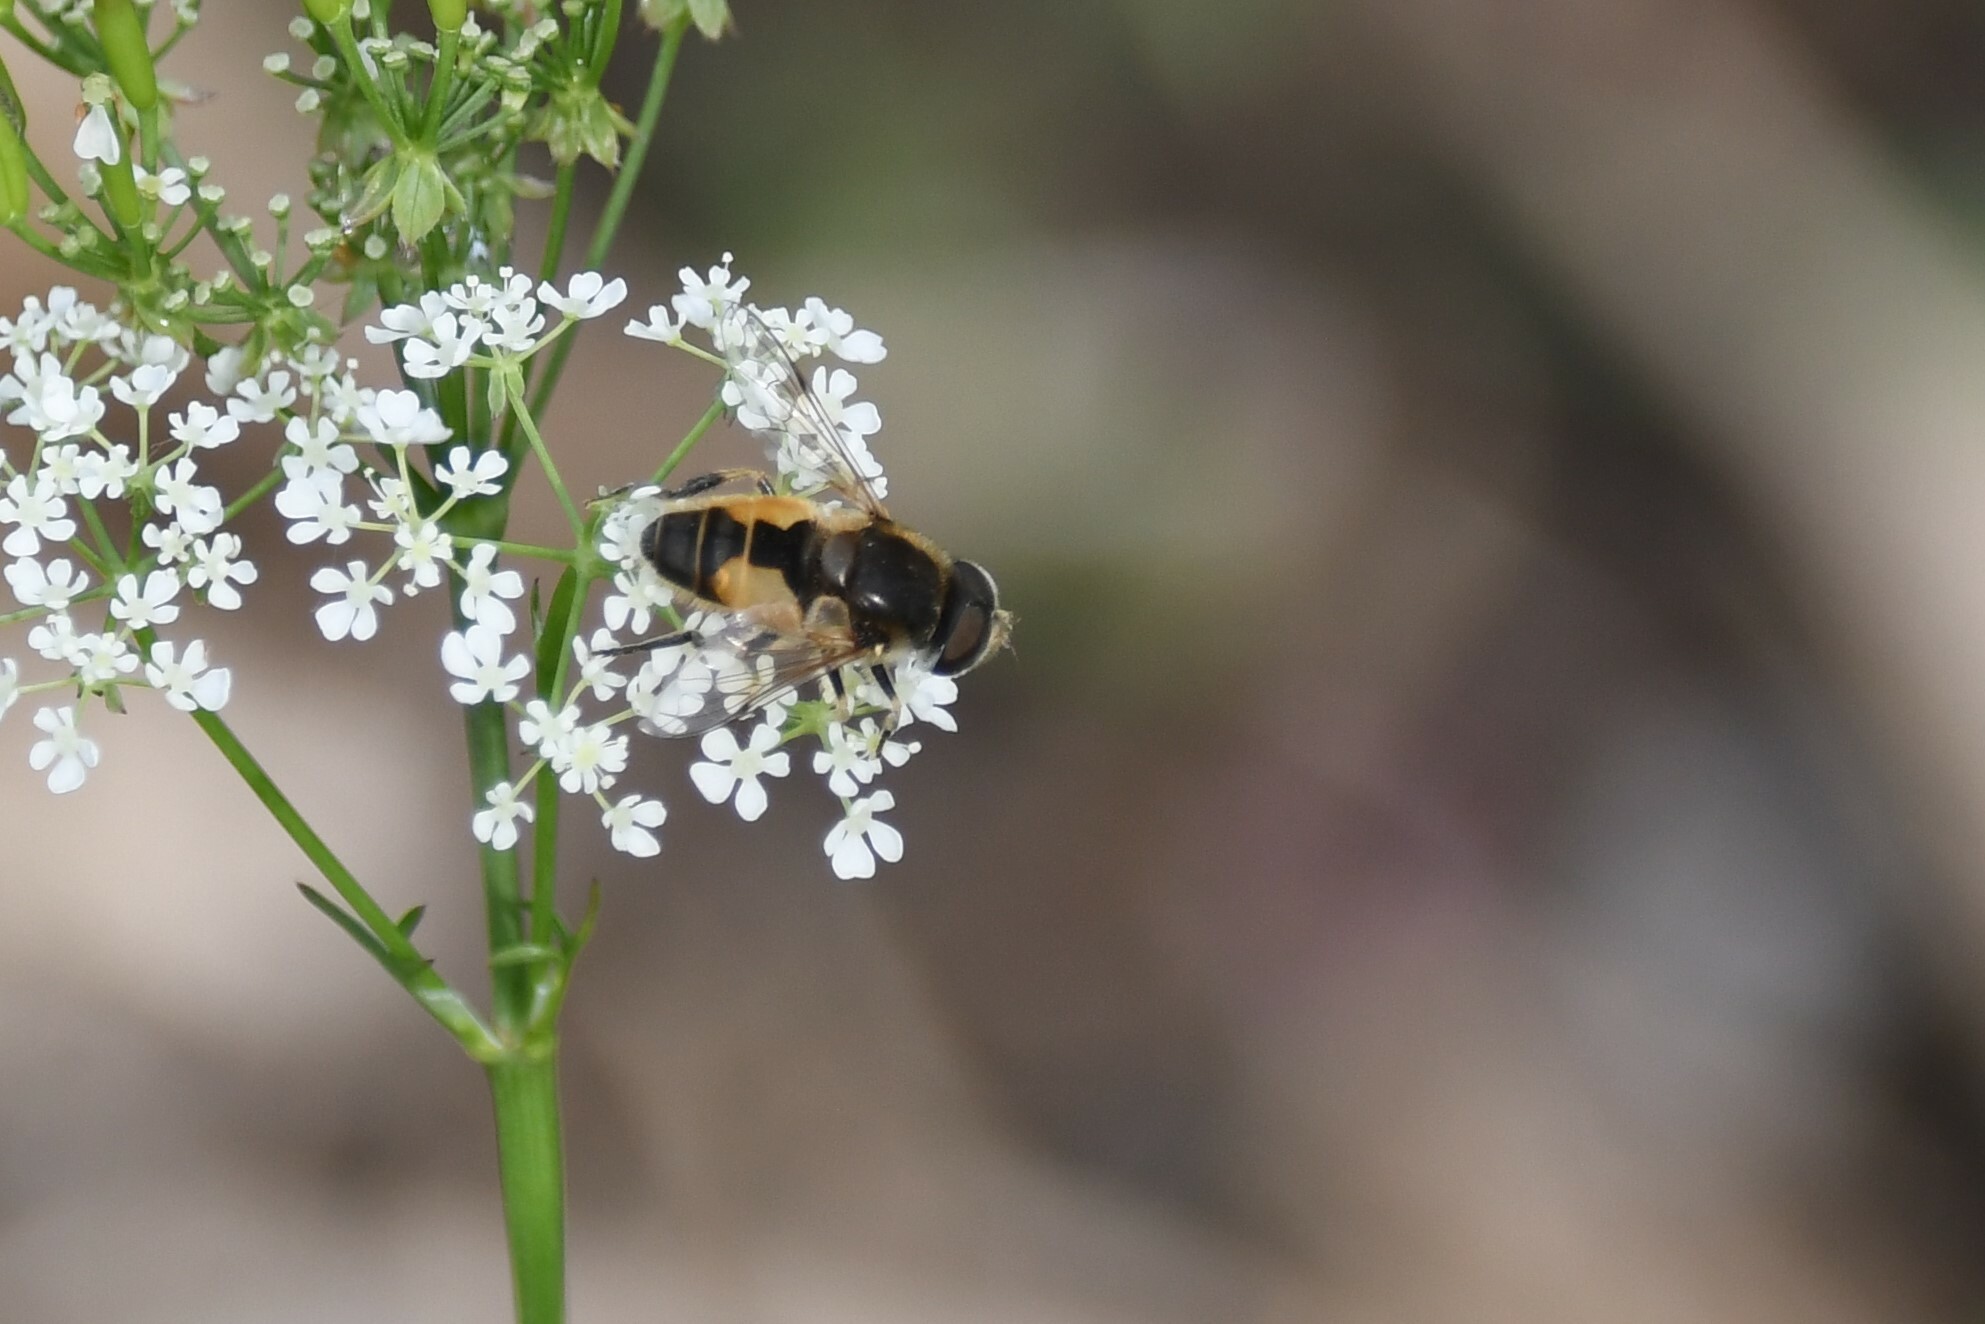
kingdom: Animalia
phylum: Arthropoda
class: Insecta
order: Diptera
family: Syrphidae
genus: Eristalis
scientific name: Eristalis arbustorum
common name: Hover fly
